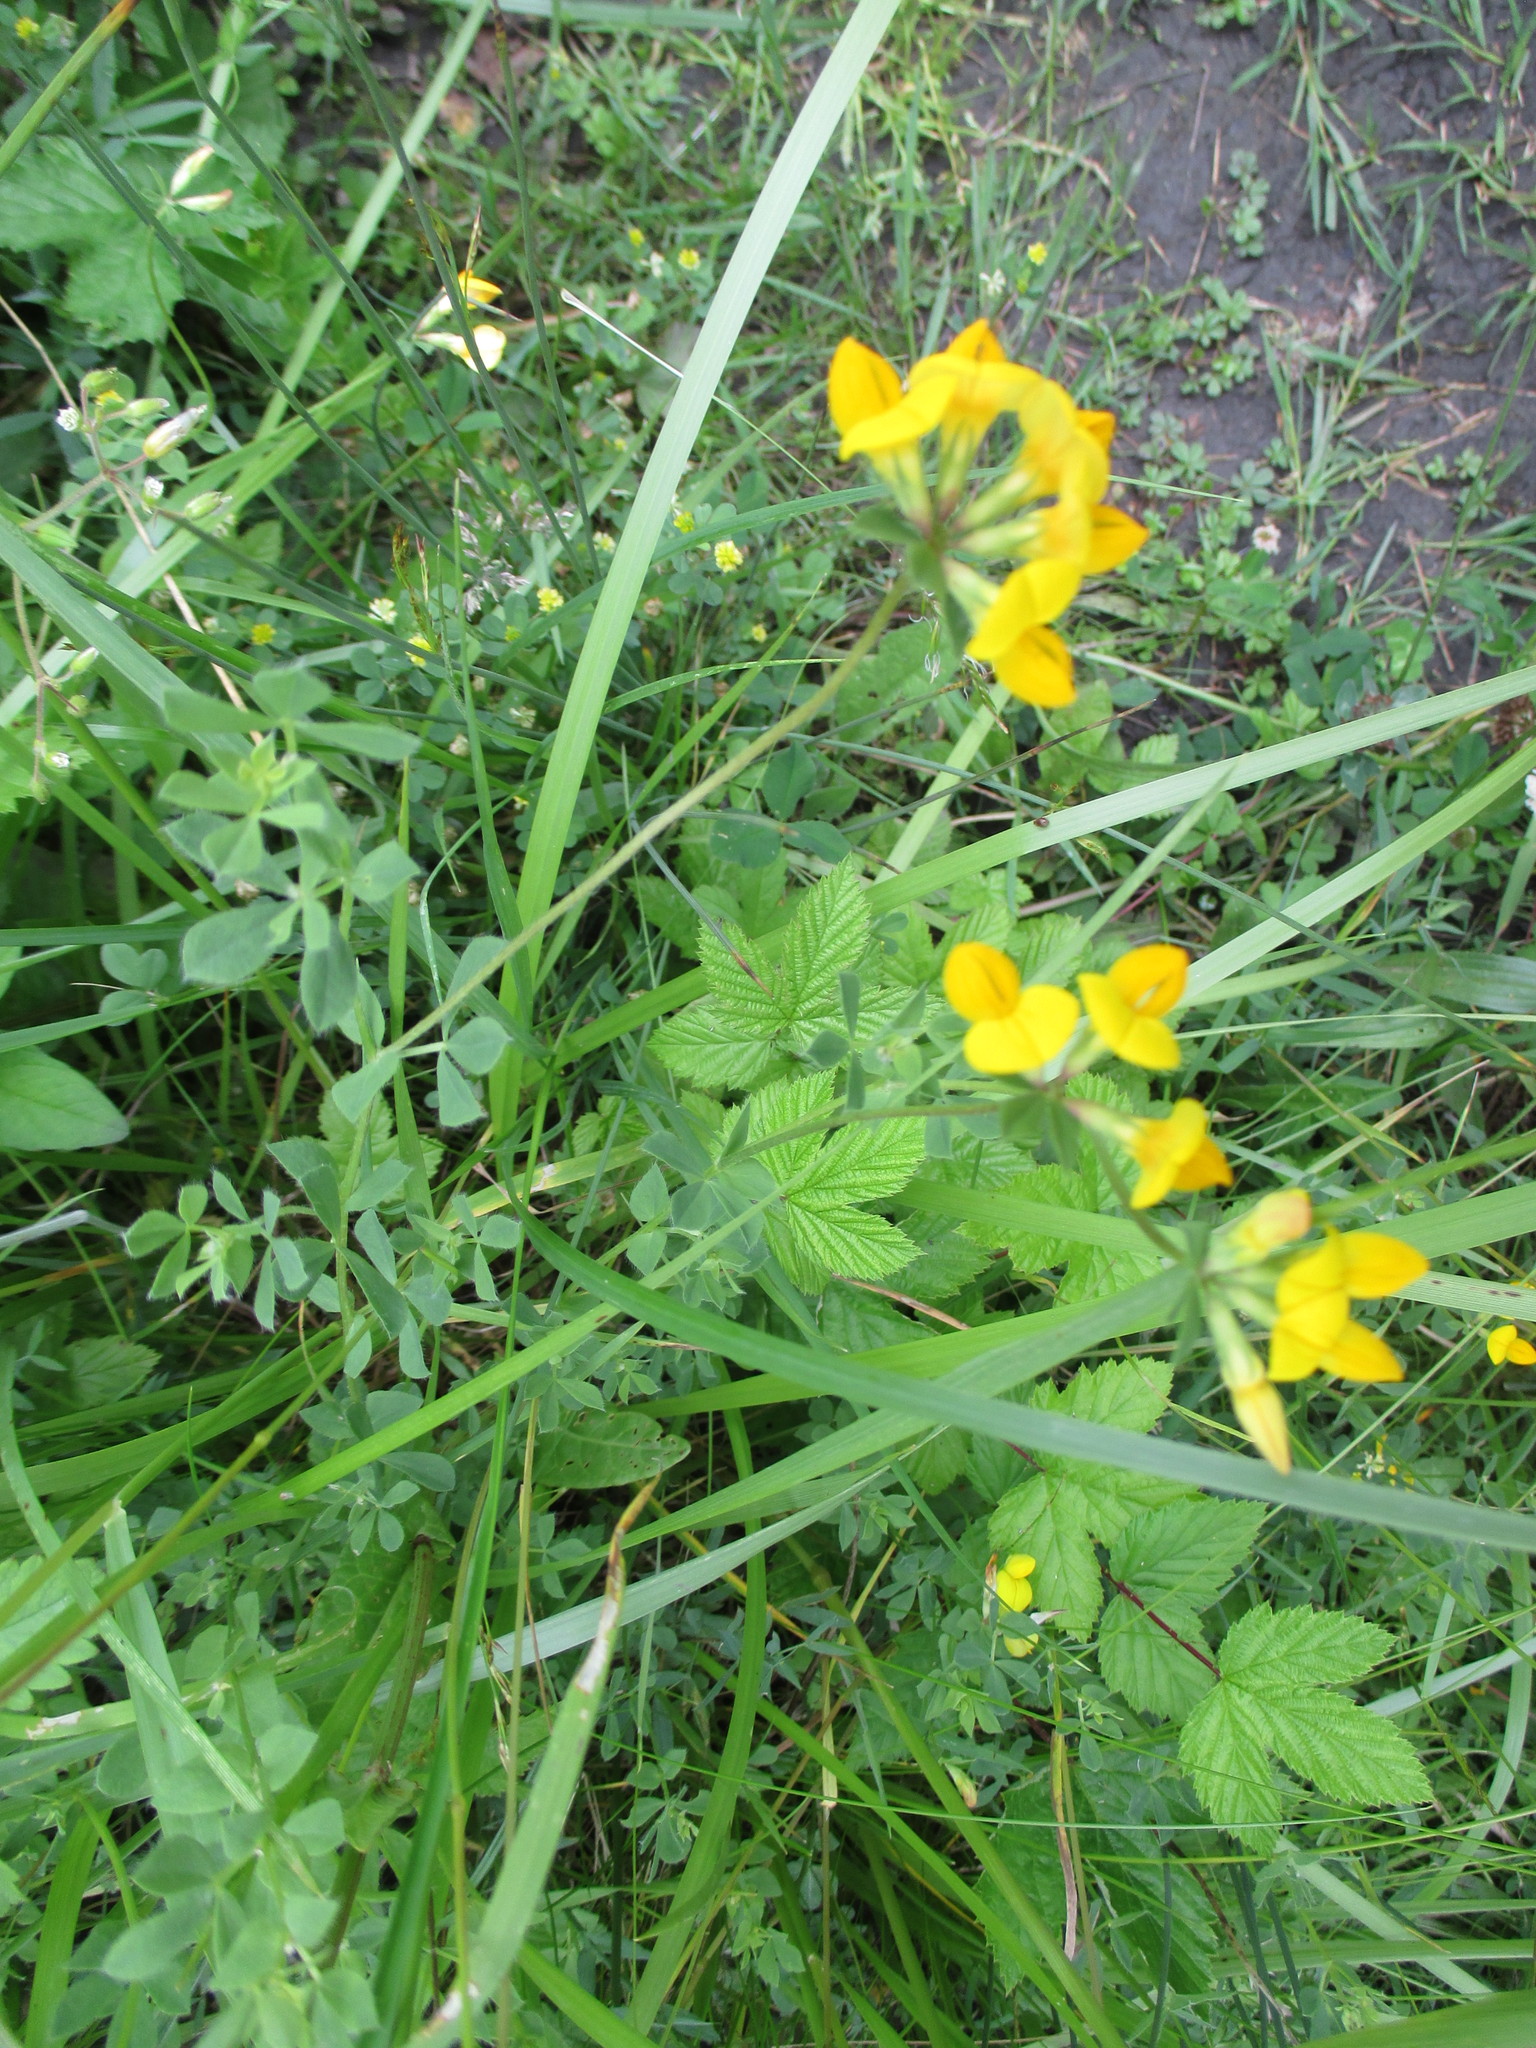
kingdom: Plantae
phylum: Tracheophyta
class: Magnoliopsida
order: Fabales
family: Fabaceae
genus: Lotus
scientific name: Lotus corniculatus
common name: Common bird's-foot-trefoil
